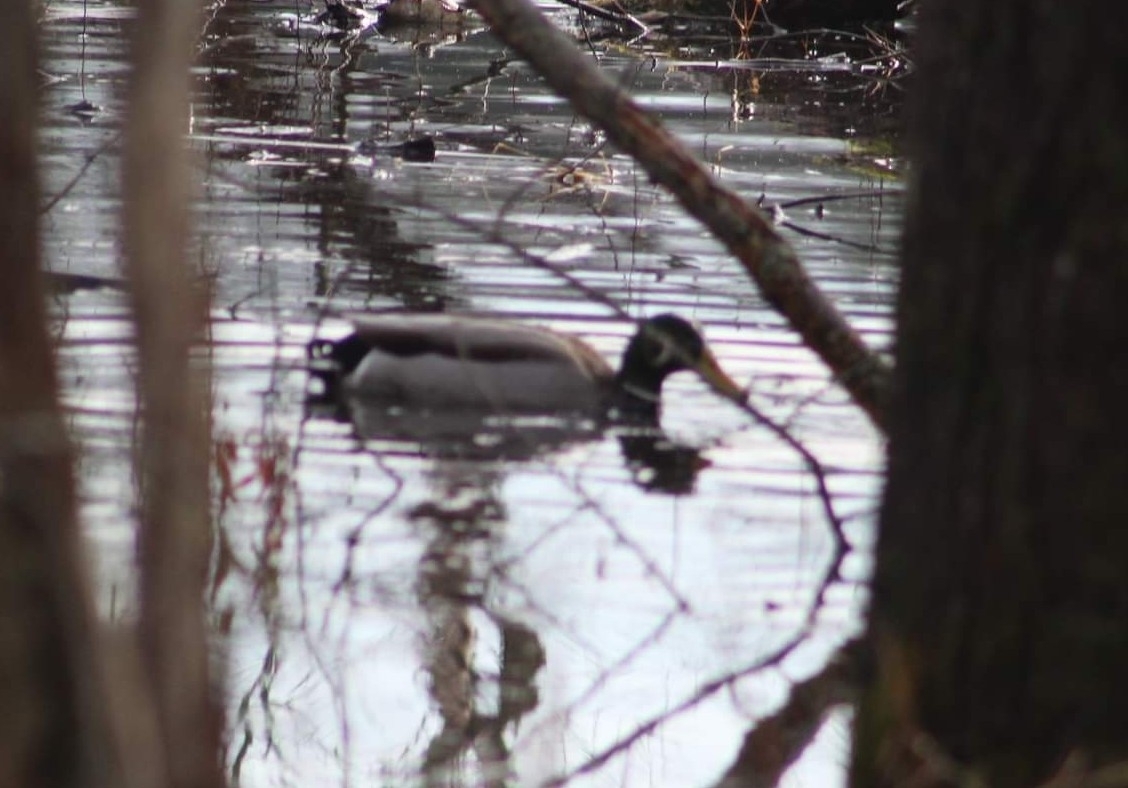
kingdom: Animalia
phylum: Chordata
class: Aves
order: Anseriformes
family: Anatidae
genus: Anas
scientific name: Anas platyrhynchos
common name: Mallard
